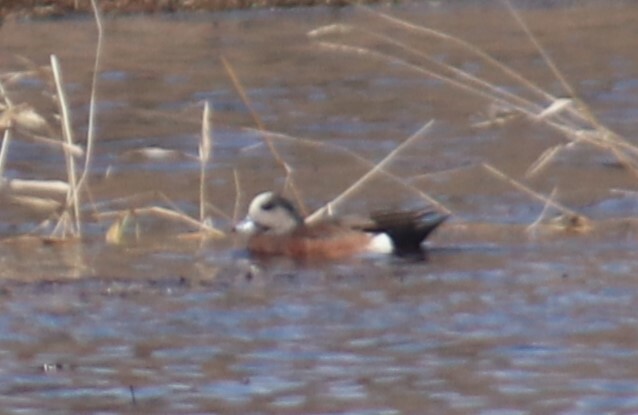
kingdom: Animalia
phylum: Chordata
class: Aves
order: Anseriformes
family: Anatidae
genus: Mareca
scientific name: Mareca americana
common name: American wigeon
